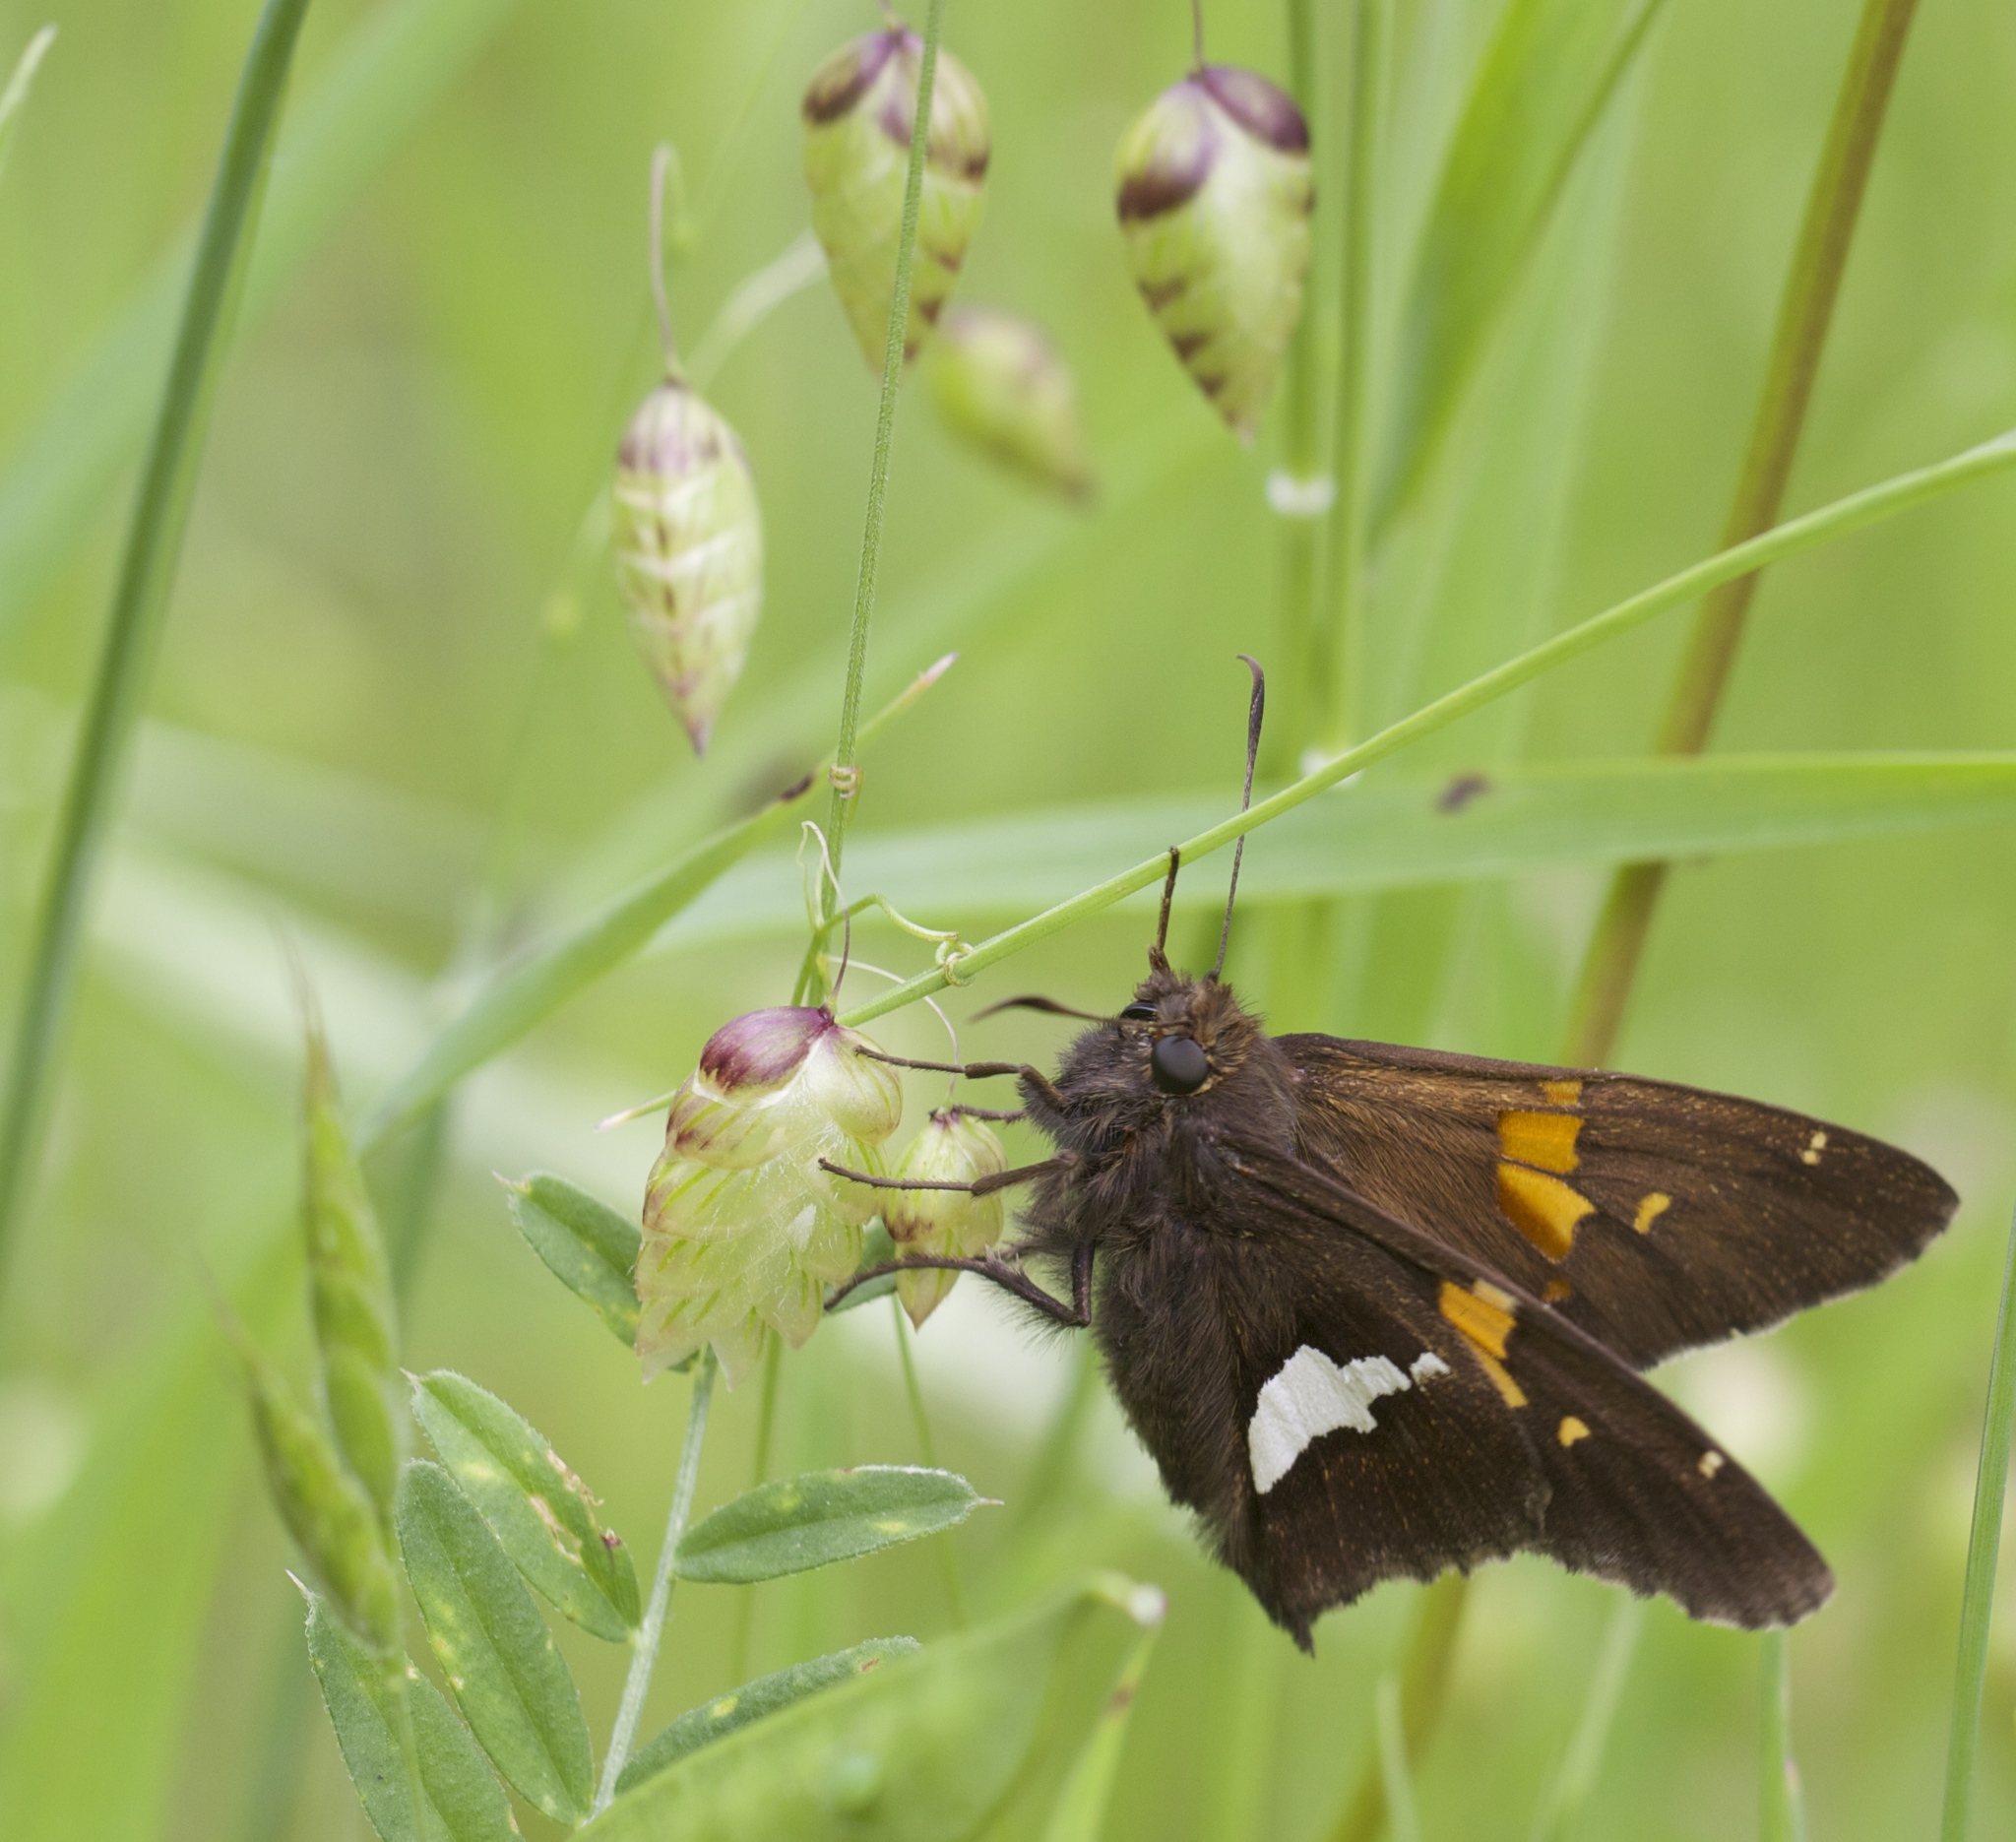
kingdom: Animalia
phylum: Arthropoda
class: Insecta
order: Lepidoptera
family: Hesperiidae
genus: Epargyreus
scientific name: Epargyreus clarus
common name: Silver-spotted skipper
